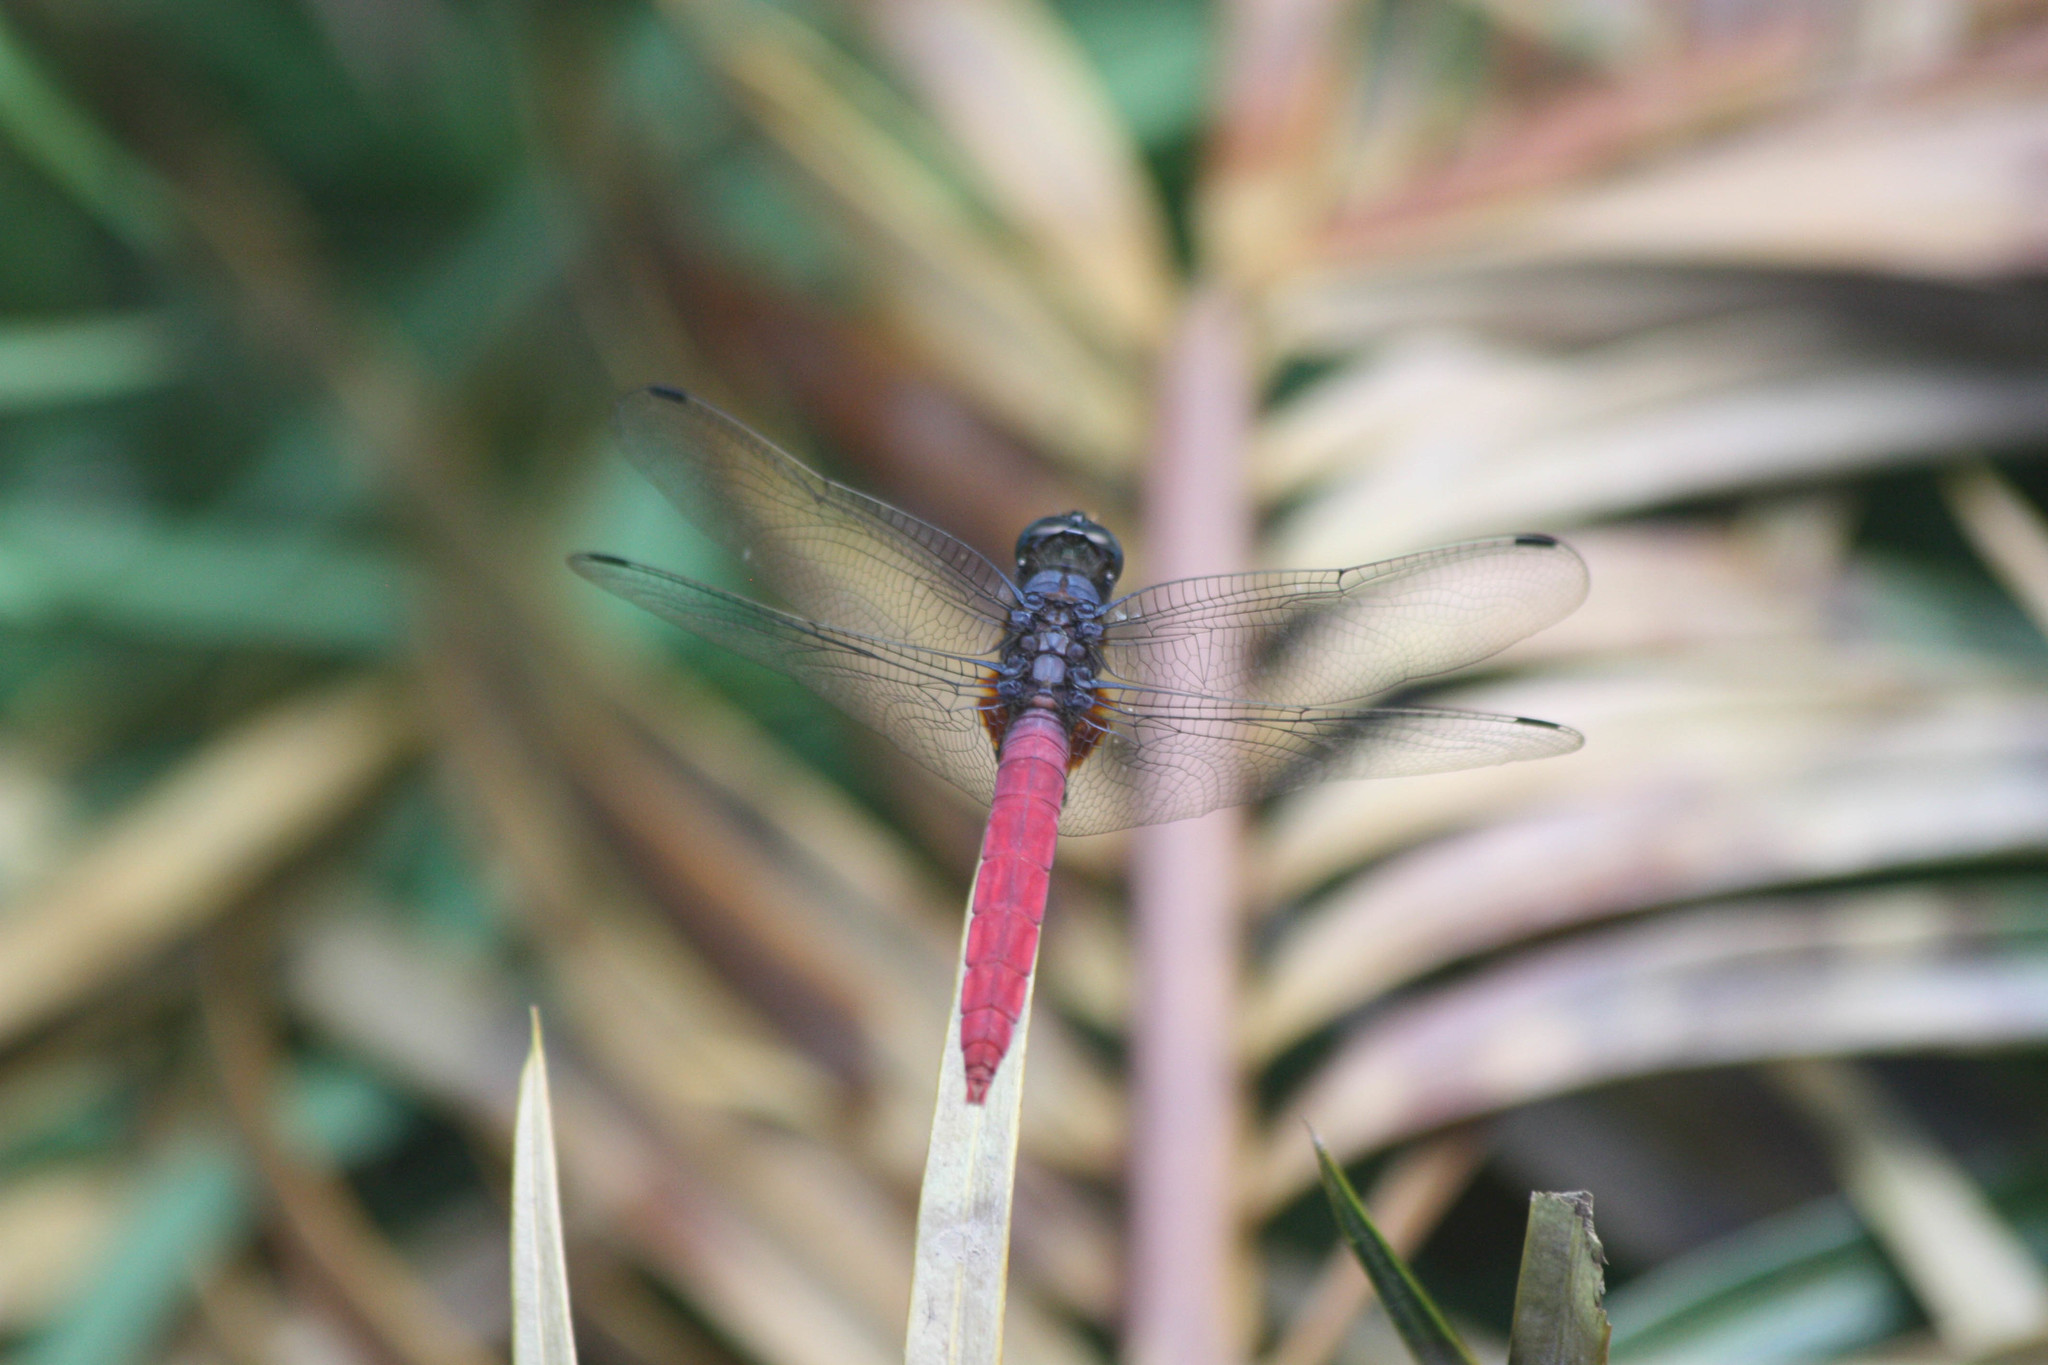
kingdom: Animalia
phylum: Arthropoda
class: Insecta
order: Odonata
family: Libellulidae
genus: Orthetrum
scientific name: Orthetrum pruinosum
